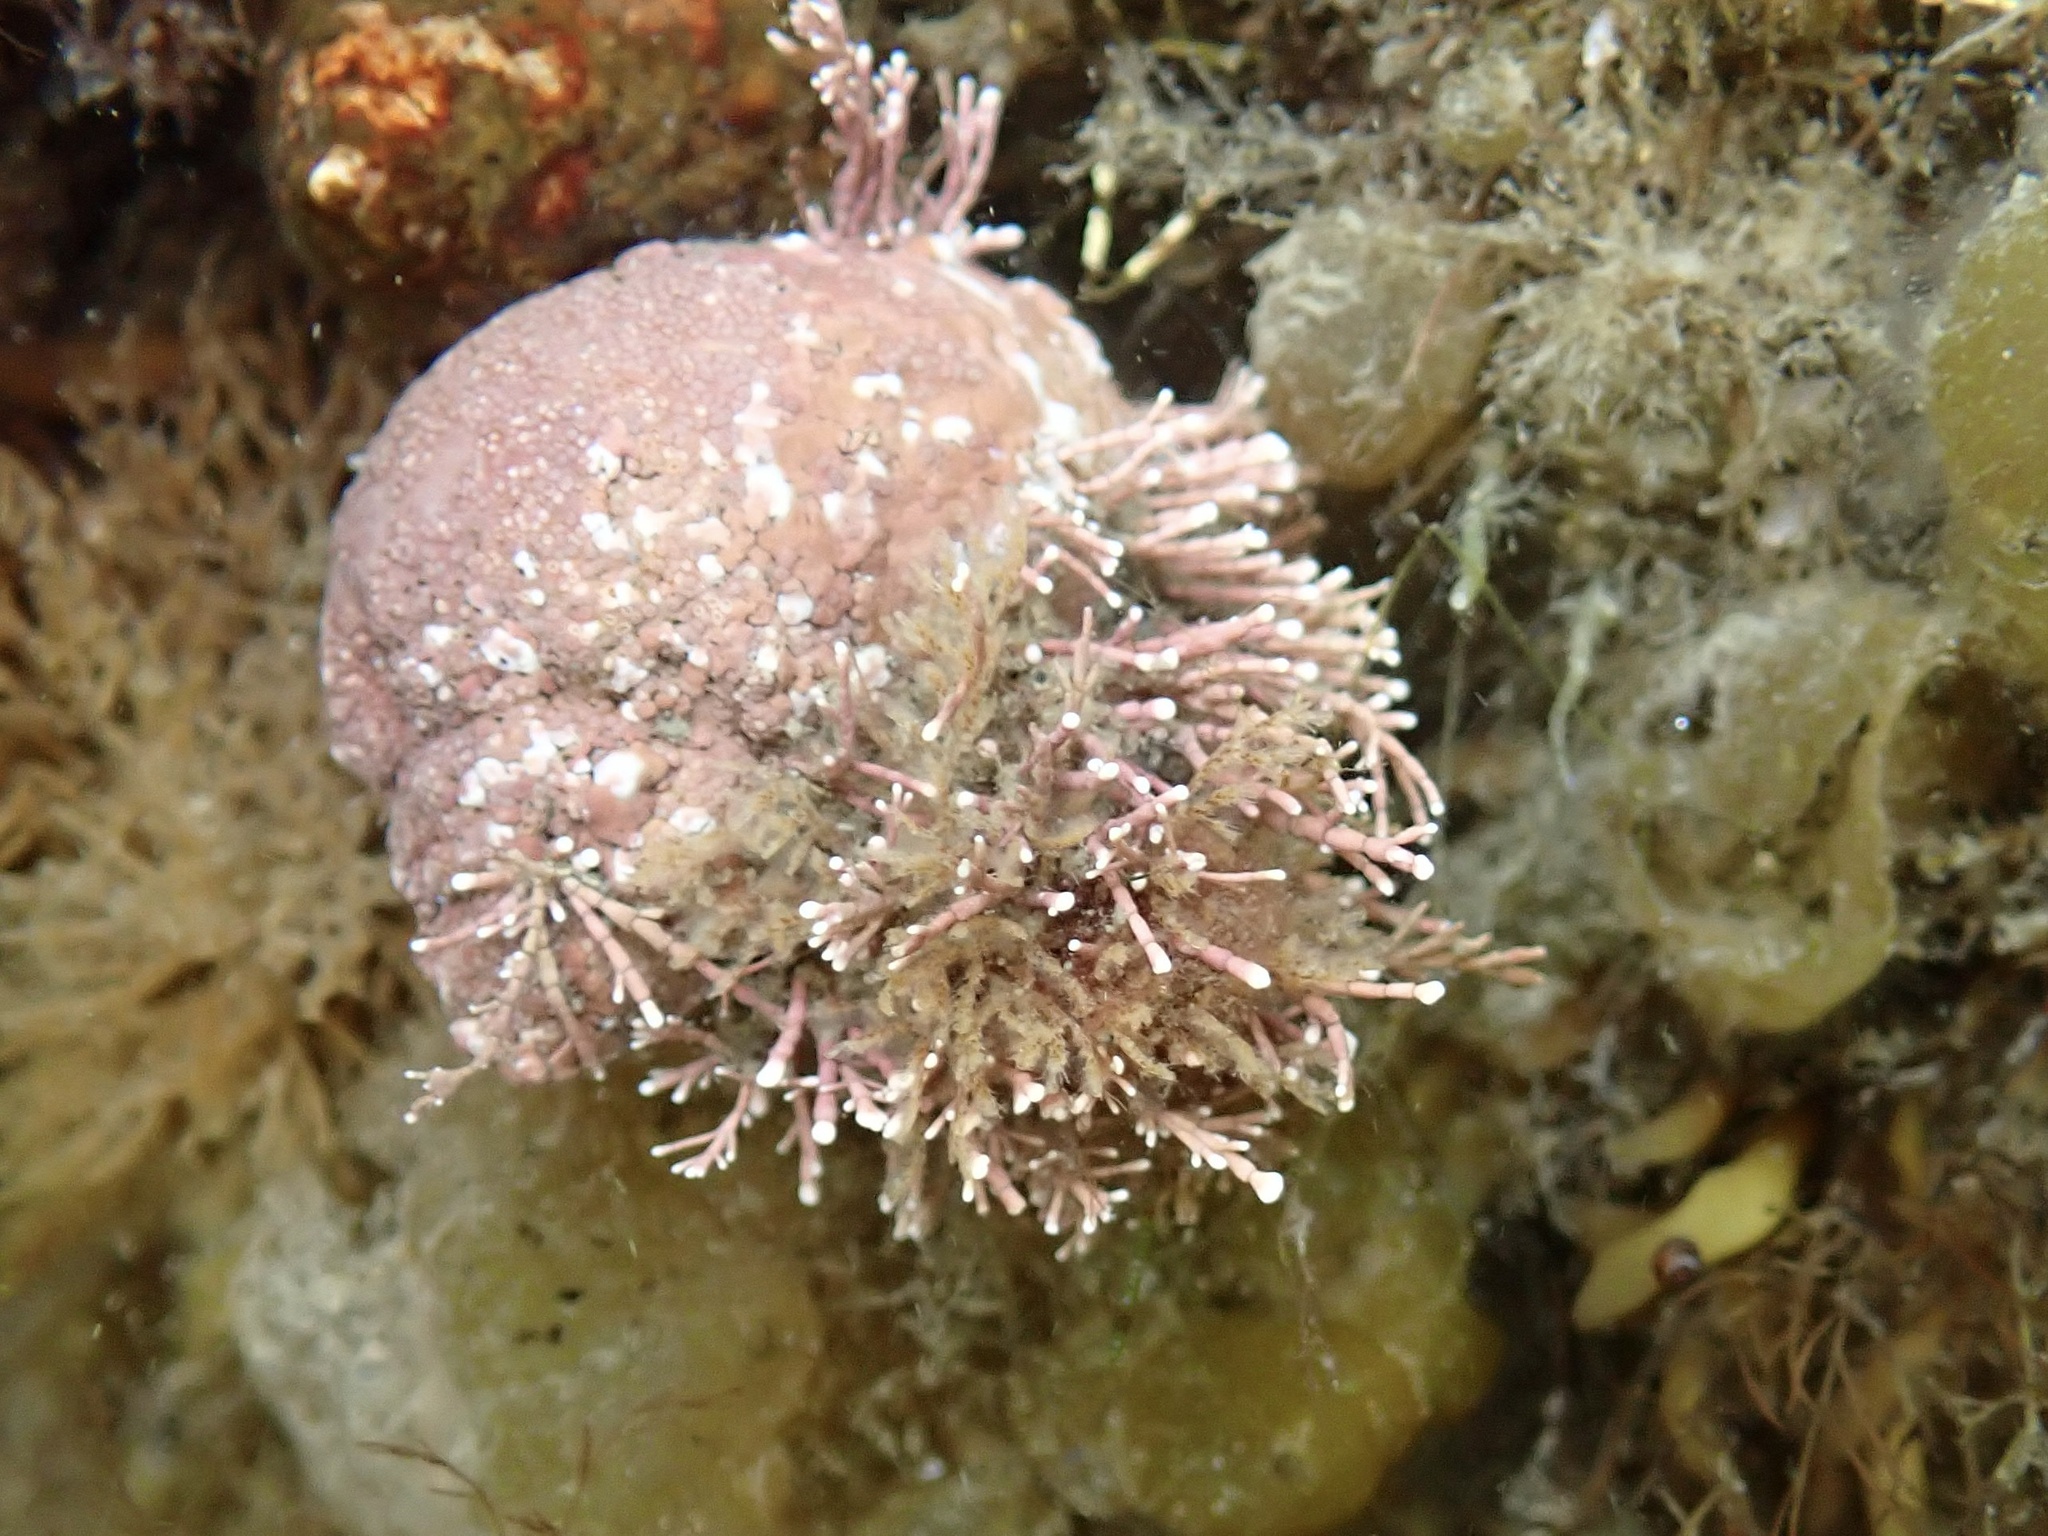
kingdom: Plantae
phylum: Rhodophyta
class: Florideophyceae
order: Corallinales
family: Corallinaceae
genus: Corallina
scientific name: Corallina officinalis
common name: Coral weed
